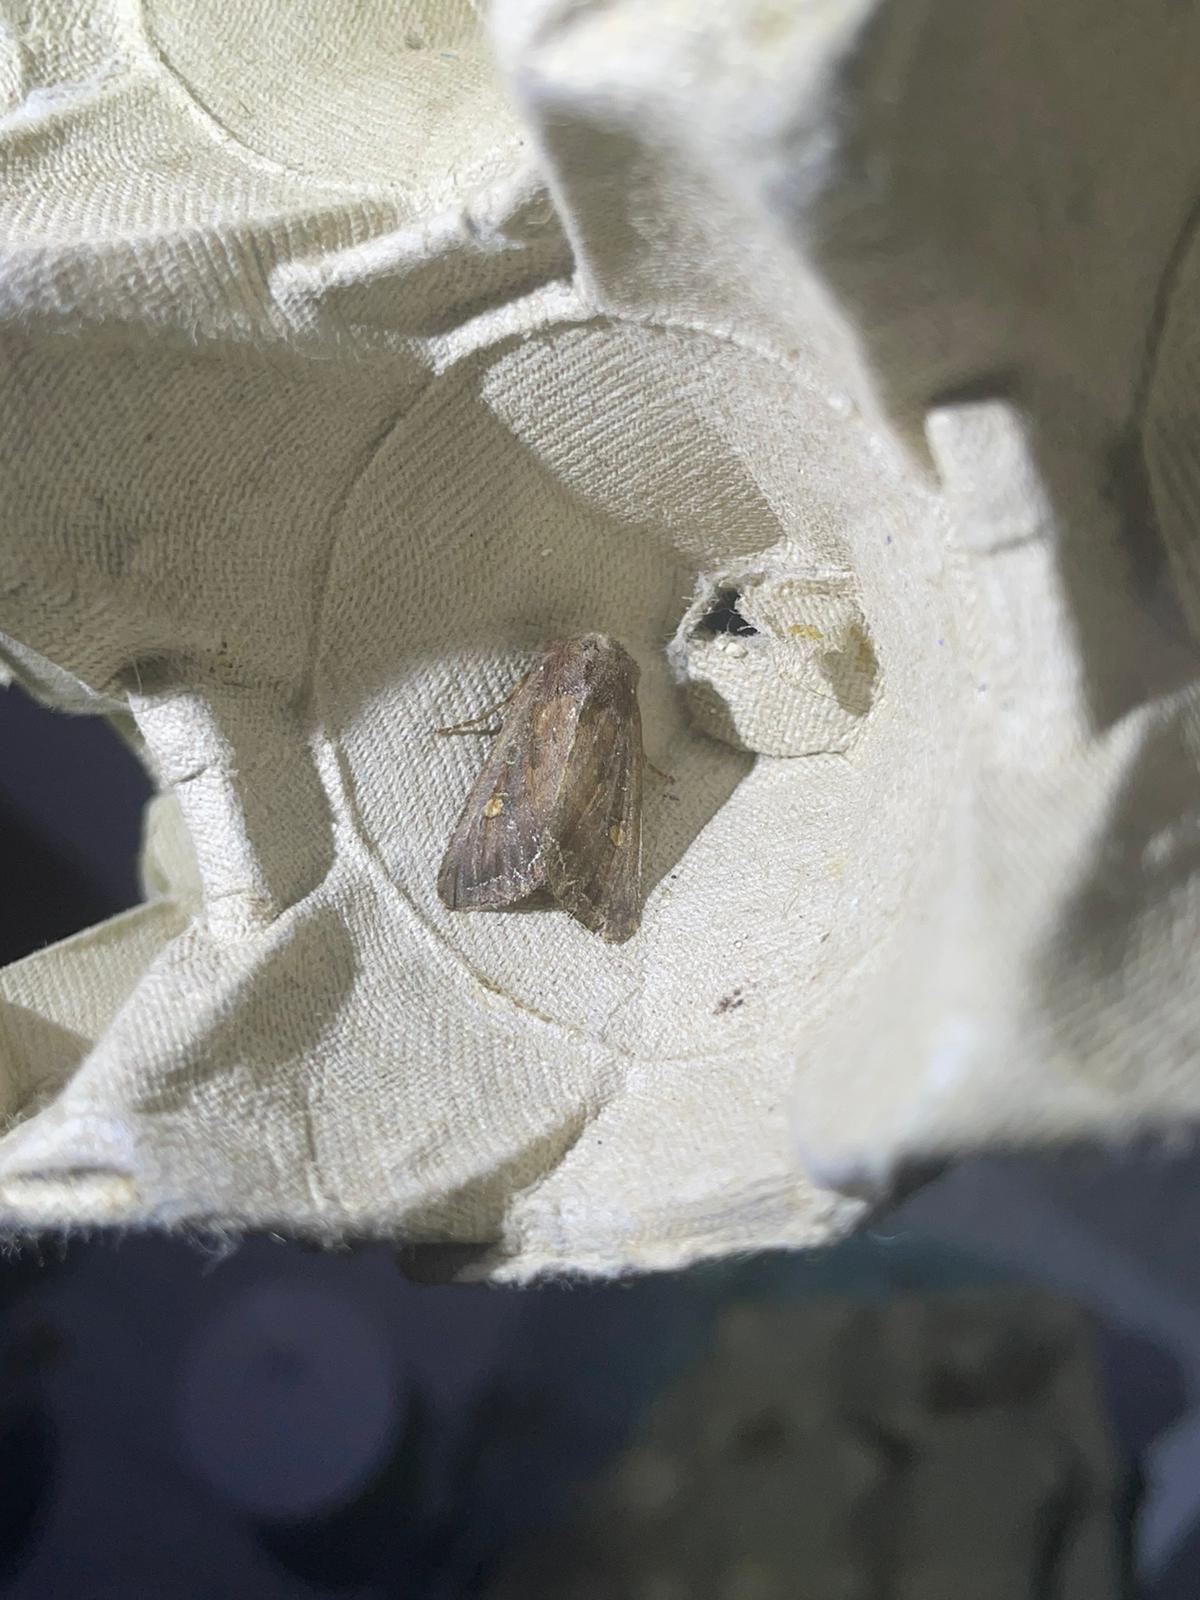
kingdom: Animalia
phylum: Arthropoda
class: Insecta
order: Lepidoptera
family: Noctuidae
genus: Lacanobia
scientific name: Lacanobia oleracea
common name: Bright-line brown-eye
